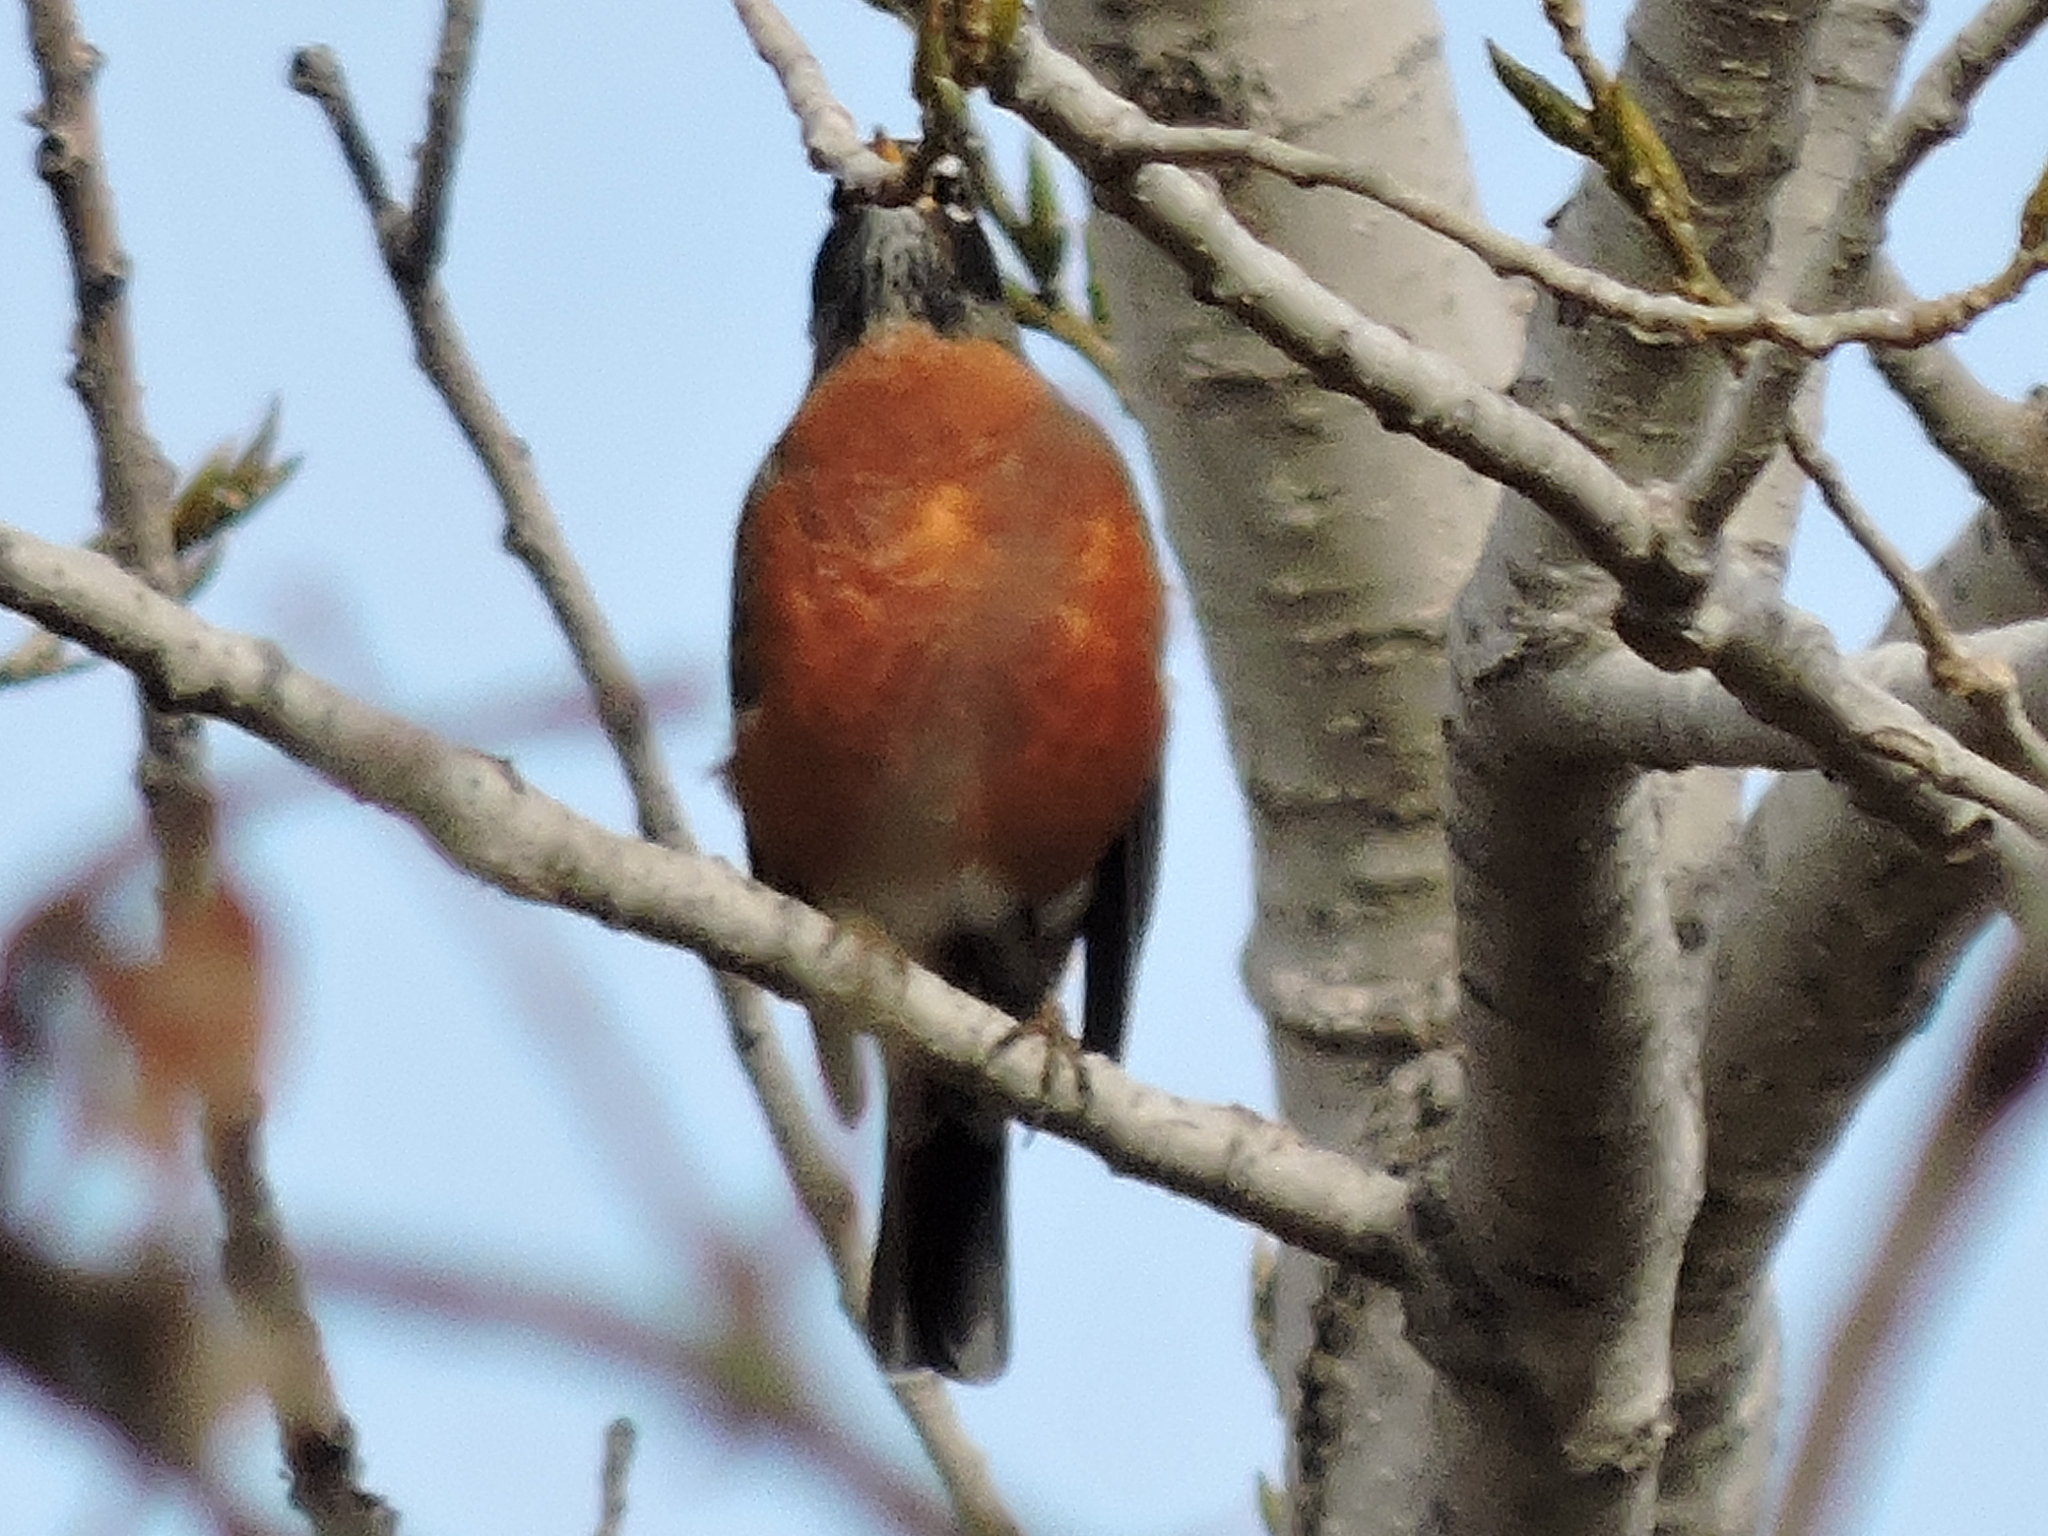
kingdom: Animalia
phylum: Chordata
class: Aves
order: Passeriformes
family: Turdidae
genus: Turdus
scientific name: Turdus migratorius
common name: American robin
